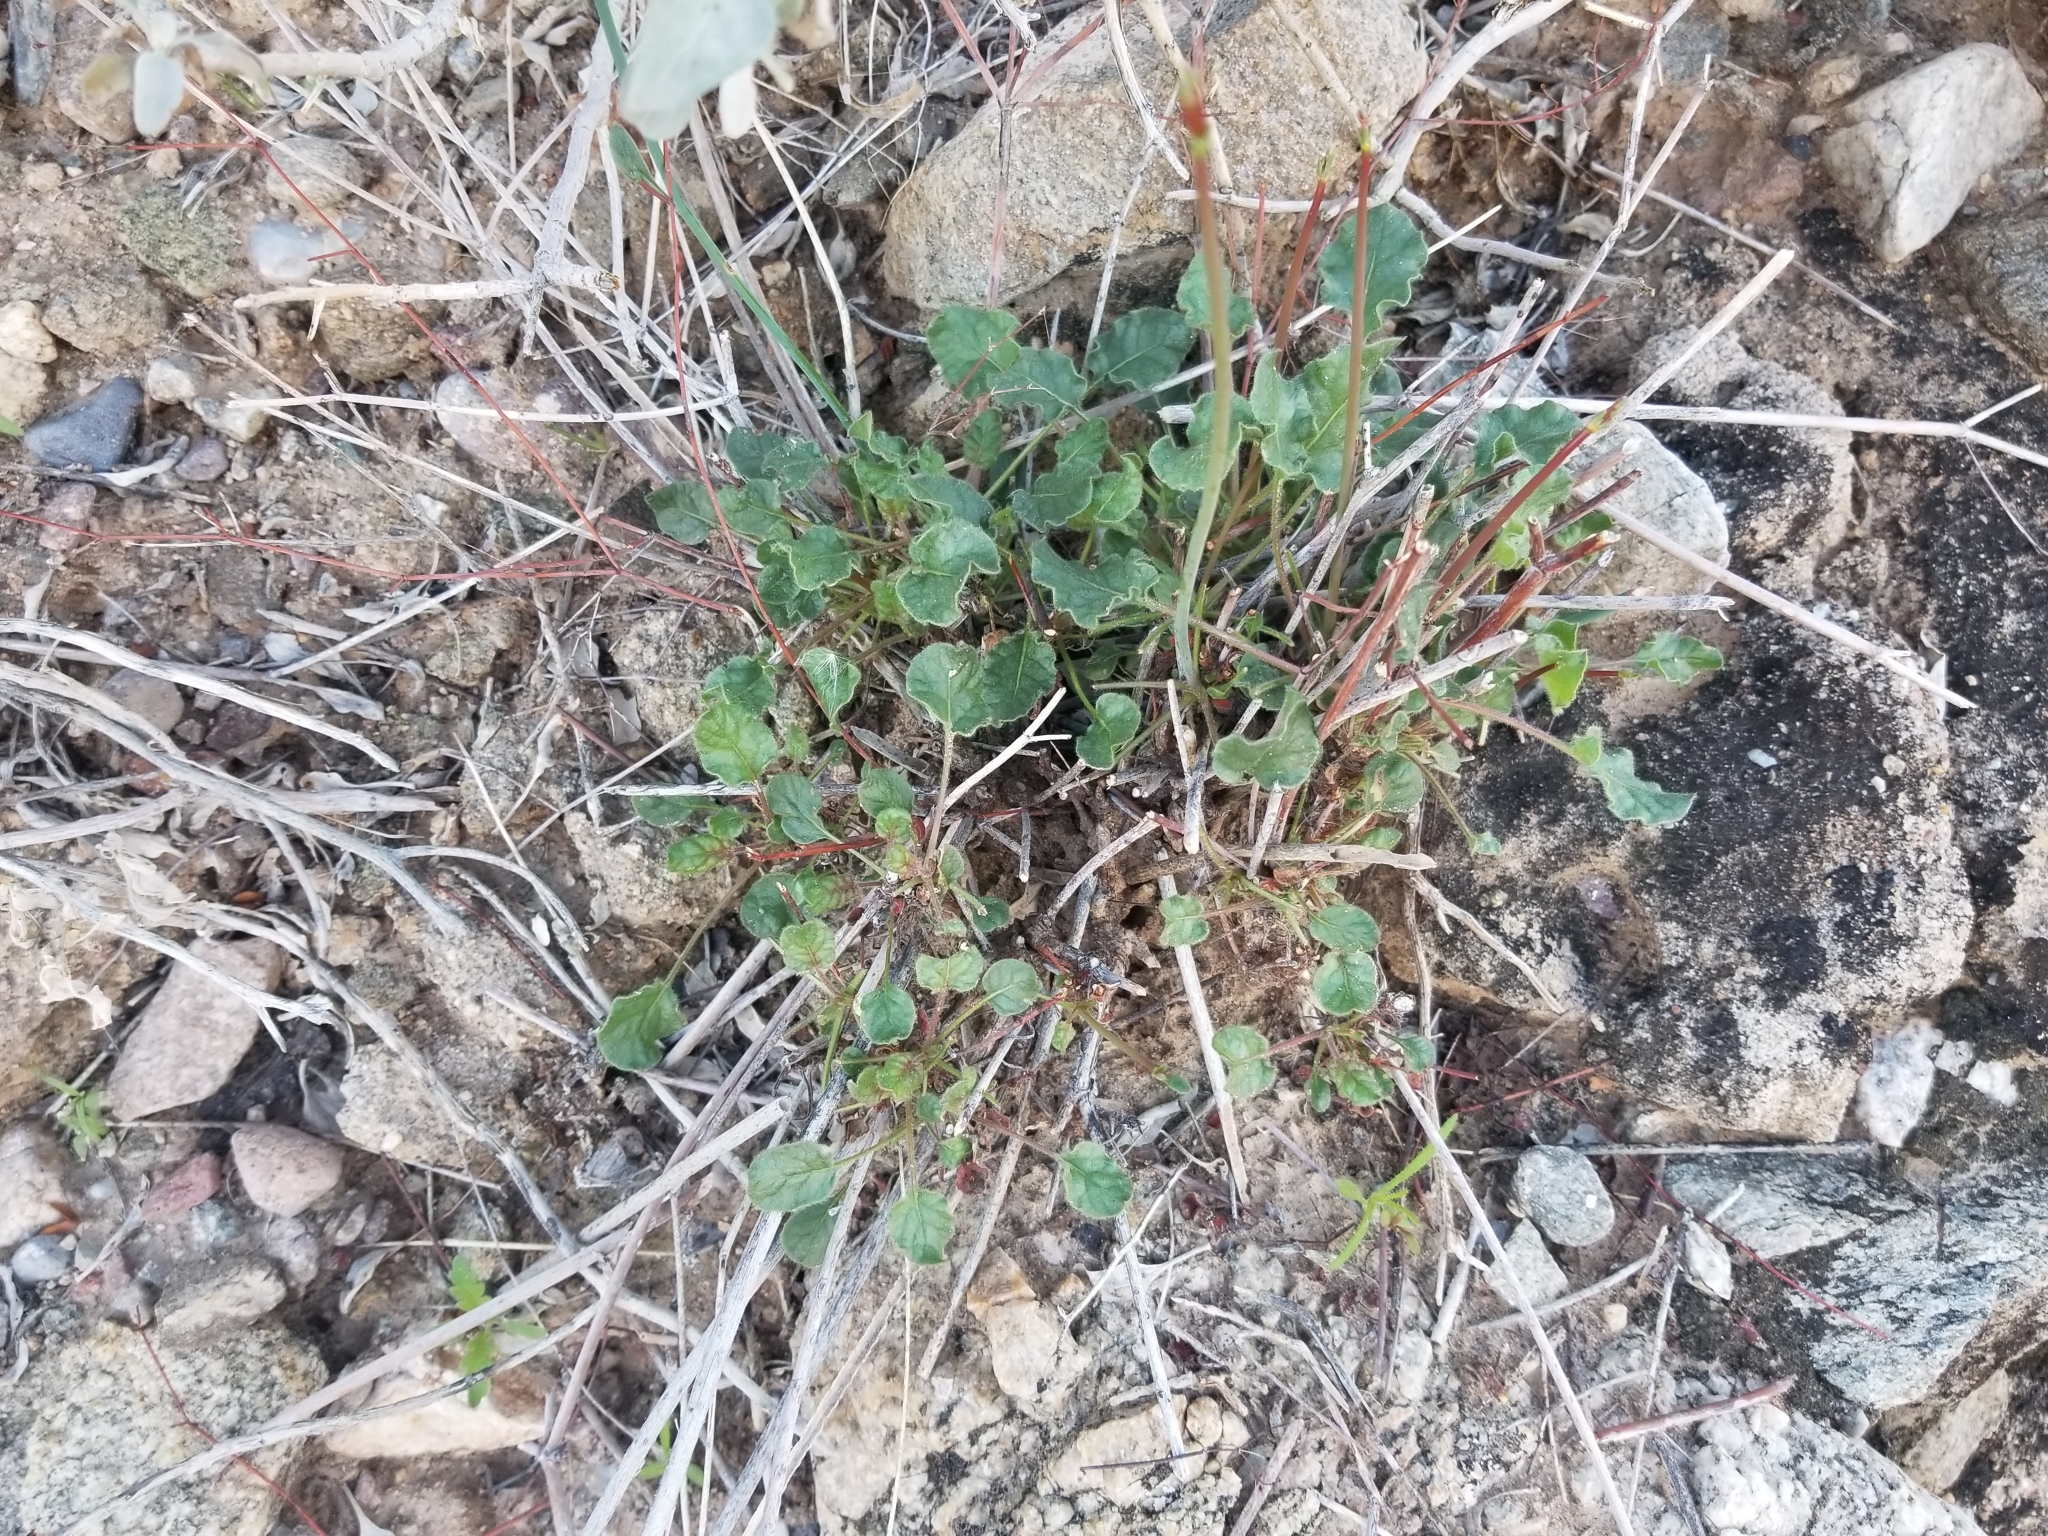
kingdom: Plantae
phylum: Tracheophyta
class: Magnoliopsida
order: Caryophyllales
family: Polygonaceae
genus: Eriogonum
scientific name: Eriogonum inflatum
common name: Desert trumpet
